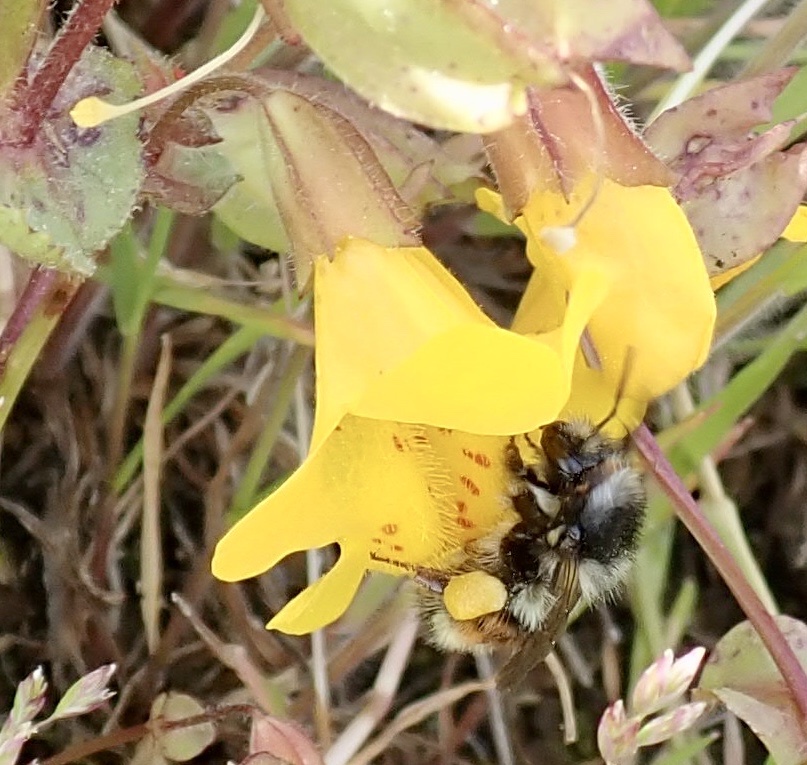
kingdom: Animalia
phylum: Arthropoda
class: Insecta
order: Hymenoptera
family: Apidae
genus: Bombus
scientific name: Bombus vancouverensis
